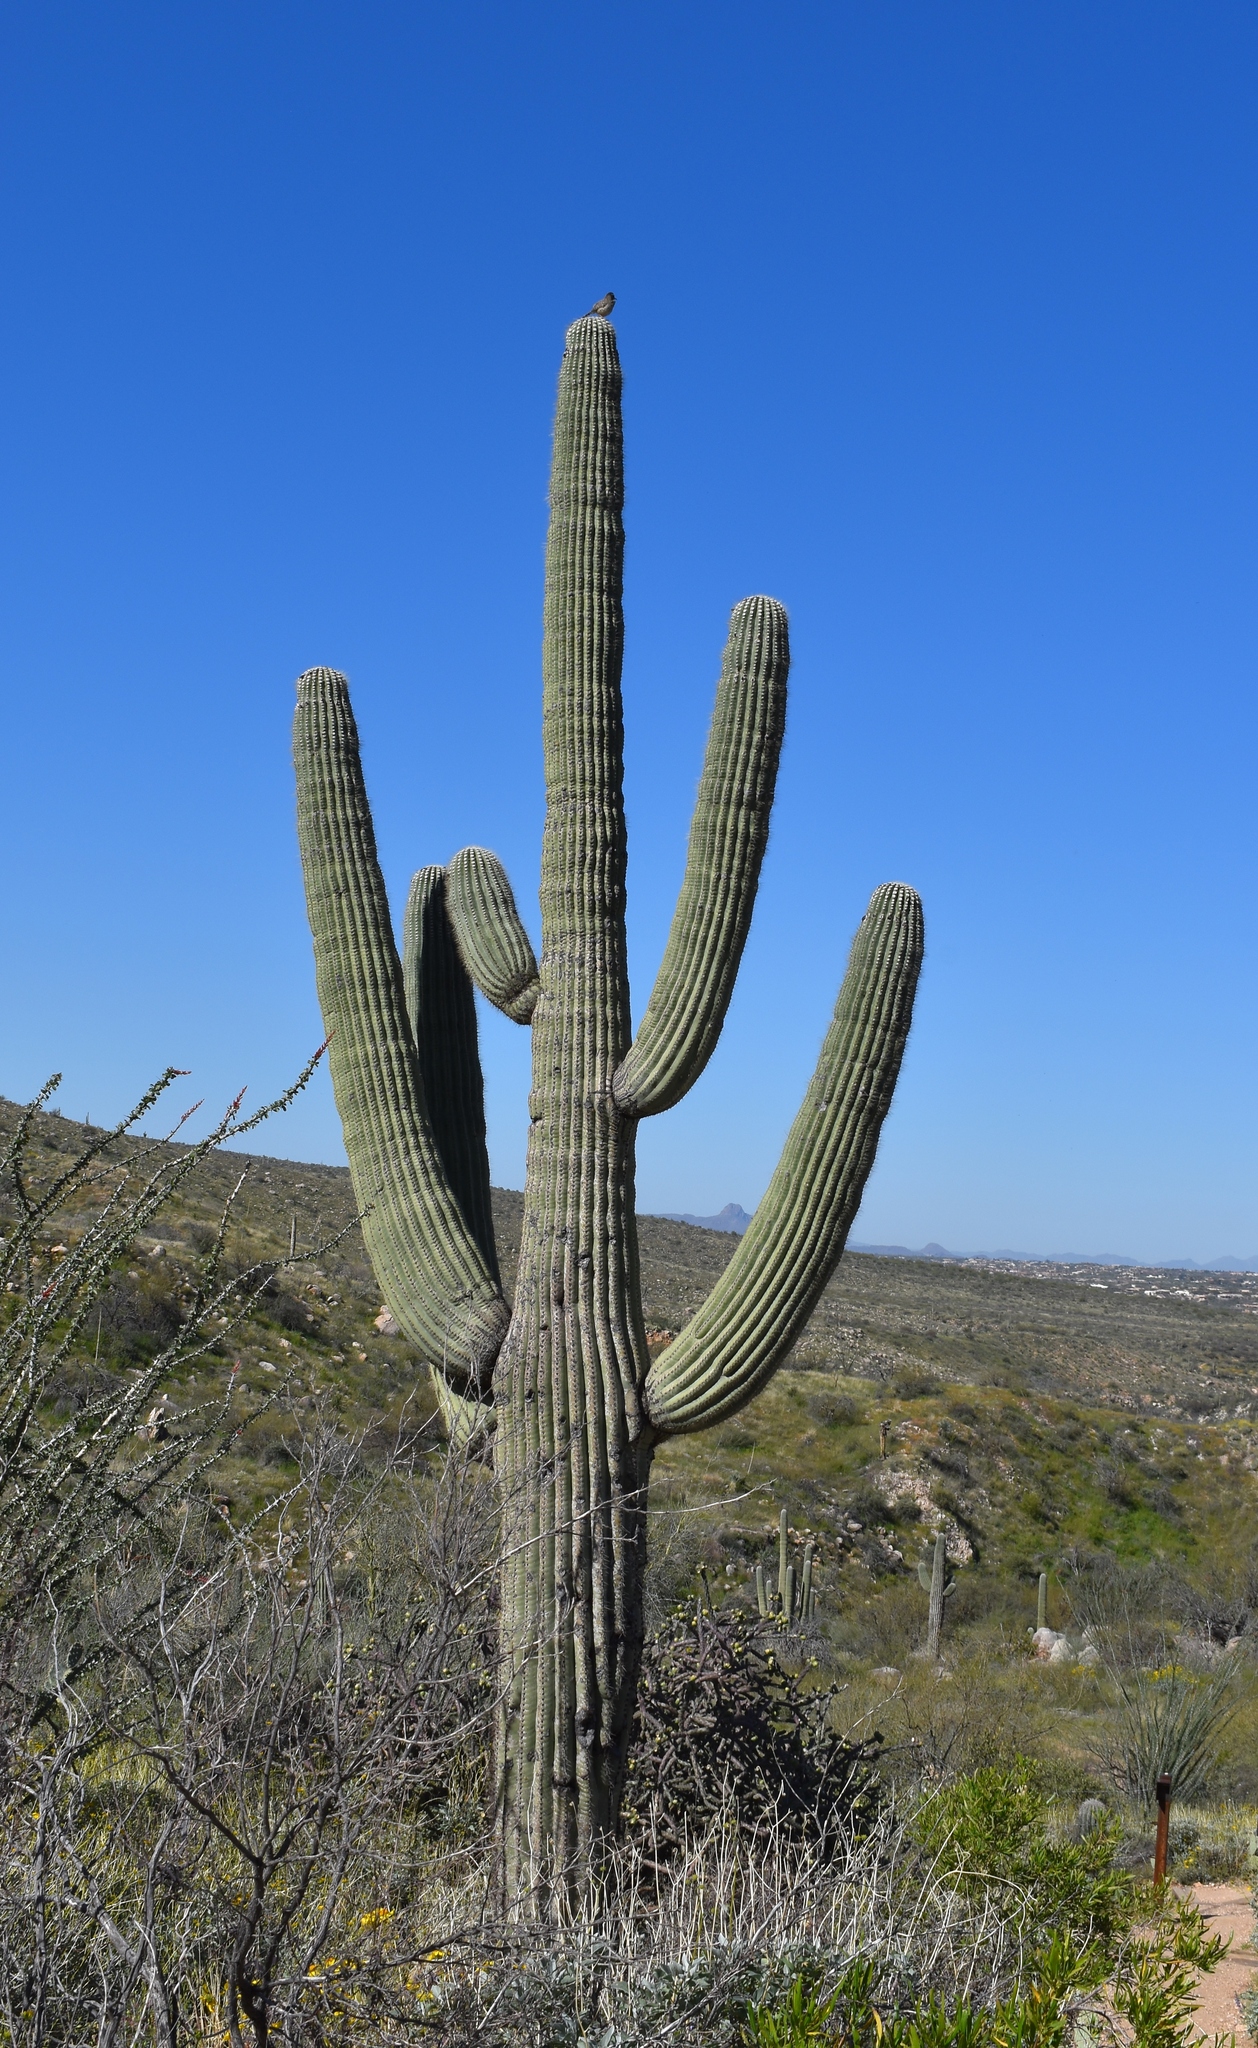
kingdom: Animalia
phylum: Chordata
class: Aves
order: Passeriformes
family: Troglodytidae
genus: Campylorhynchus
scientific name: Campylorhynchus brunneicapillus
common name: Cactus wren
